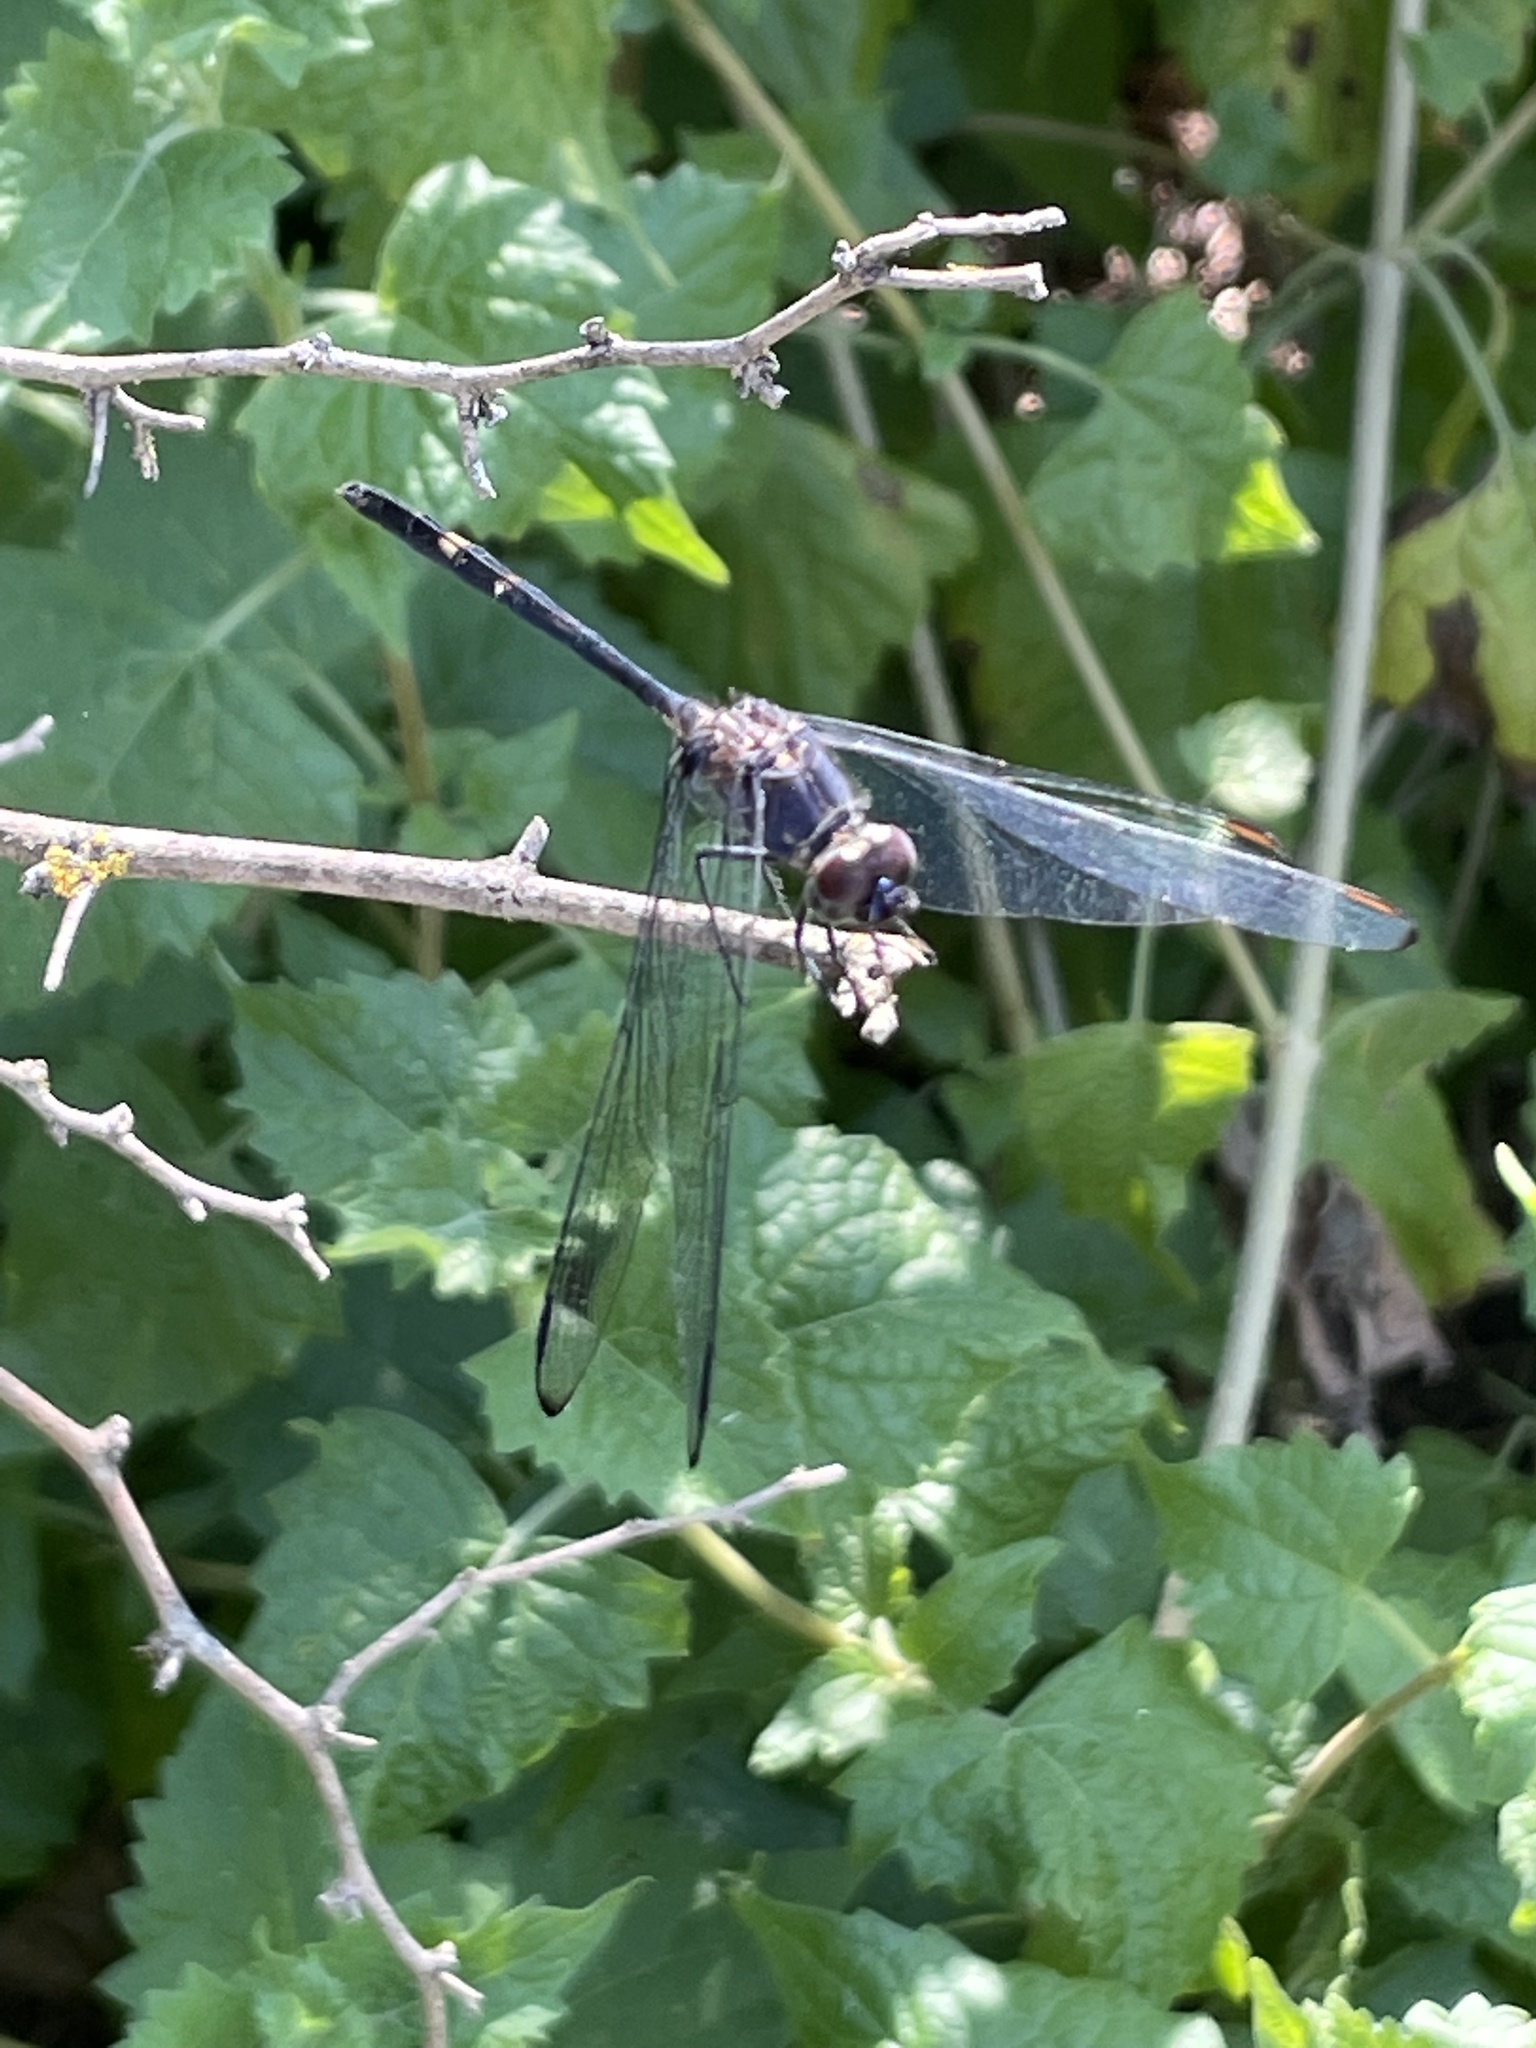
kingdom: Animalia
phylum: Arthropoda
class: Insecta
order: Odonata
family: Libellulidae
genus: Dythemis
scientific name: Dythemis nigrescens
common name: Black setwing
